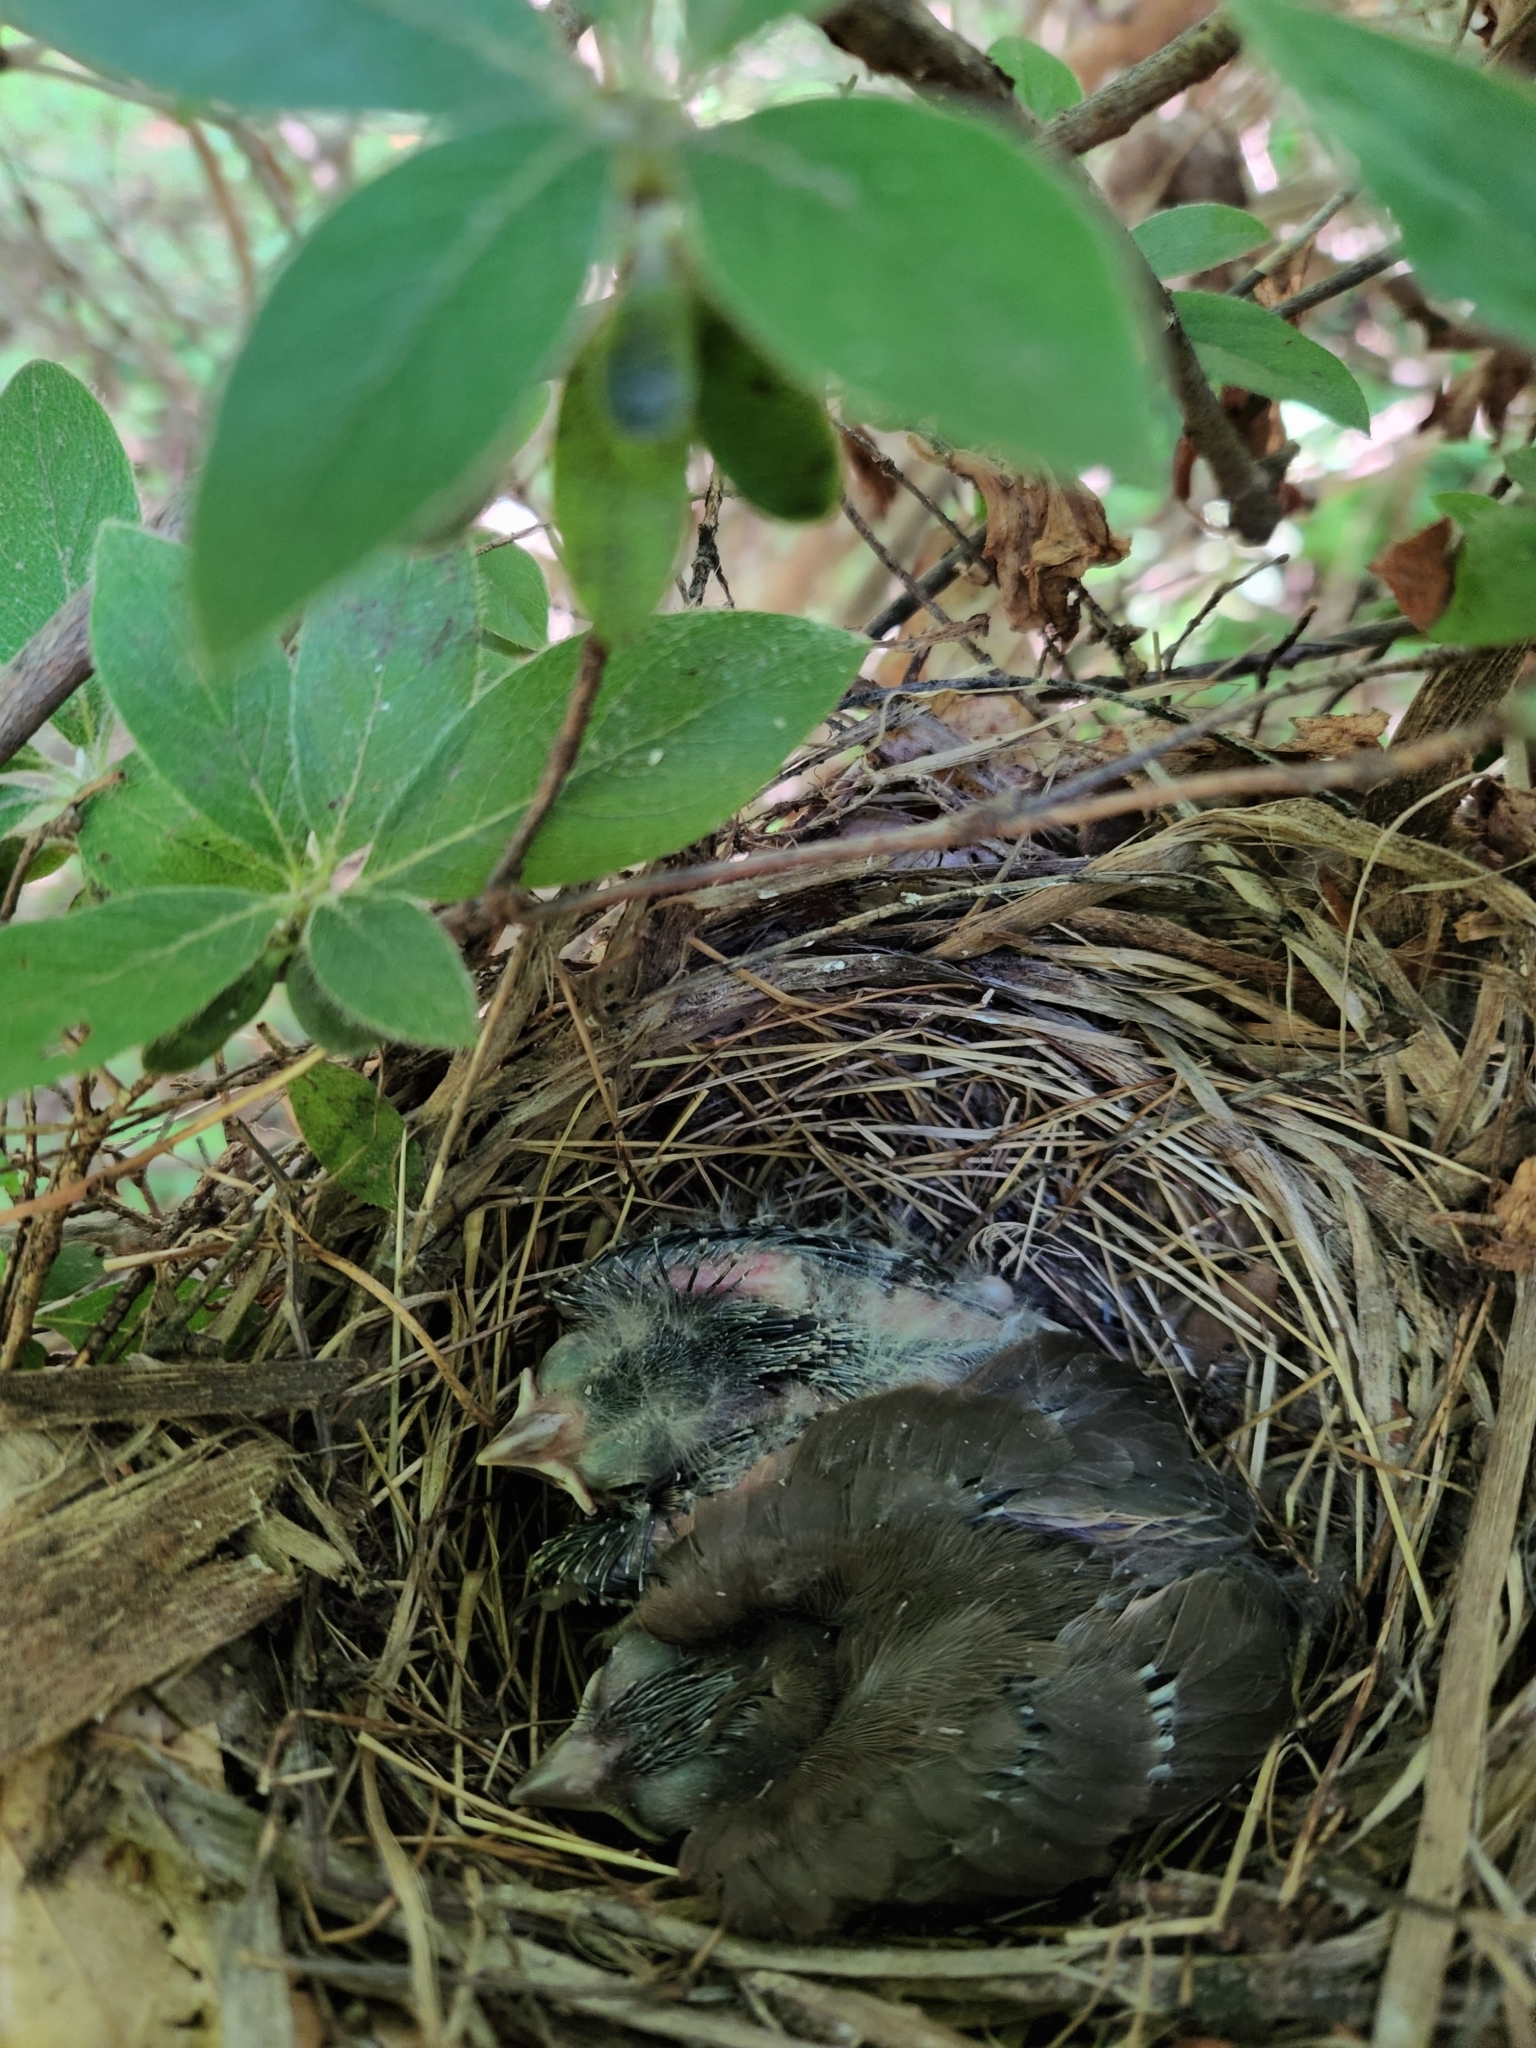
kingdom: Animalia
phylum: Chordata
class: Aves
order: Passeriformes
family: Cardinalidae
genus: Cardinalis
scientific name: Cardinalis cardinalis
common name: Northern cardinal
